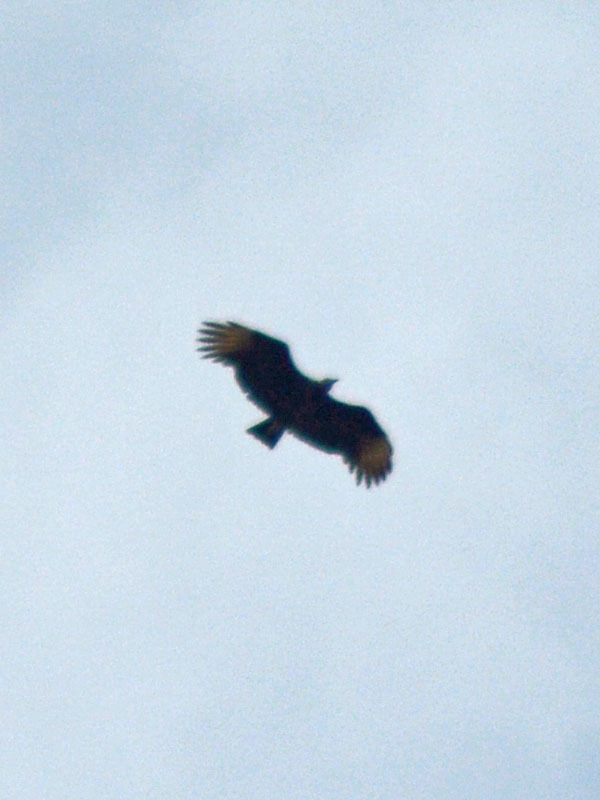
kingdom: Animalia
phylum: Chordata
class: Aves
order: Accipitriformes
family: Cathartidae
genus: Coragyps
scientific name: Coragyps atratus
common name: Black vulture
